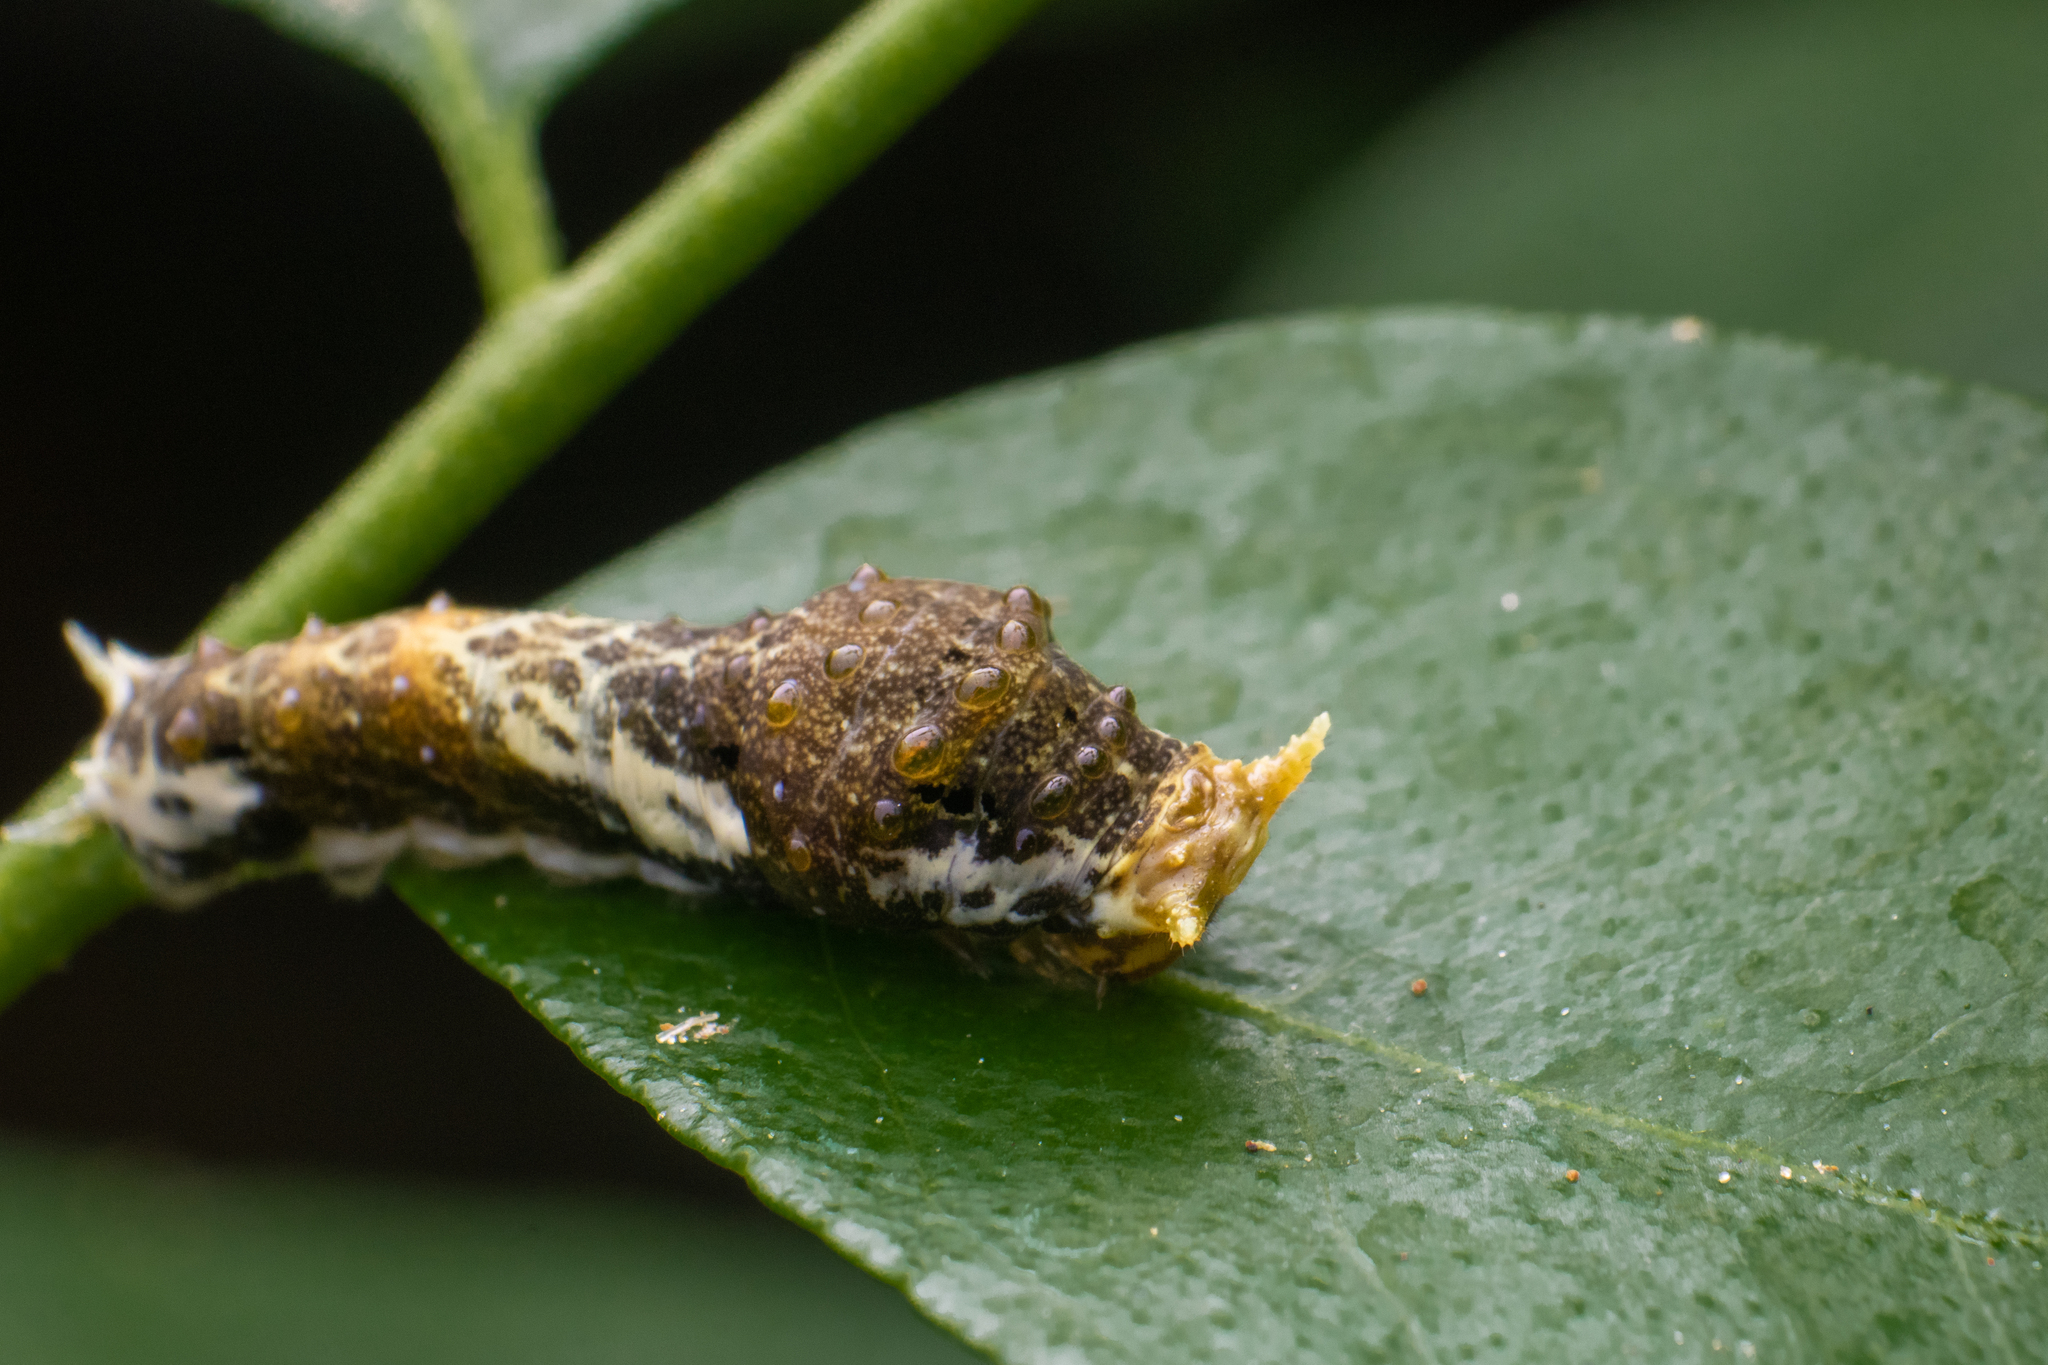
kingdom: Animalia
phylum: Arthropoda
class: Insecta
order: Lepidoptera
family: Papilionidae
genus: Papilio
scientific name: Papilio polytes
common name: Common mormon
